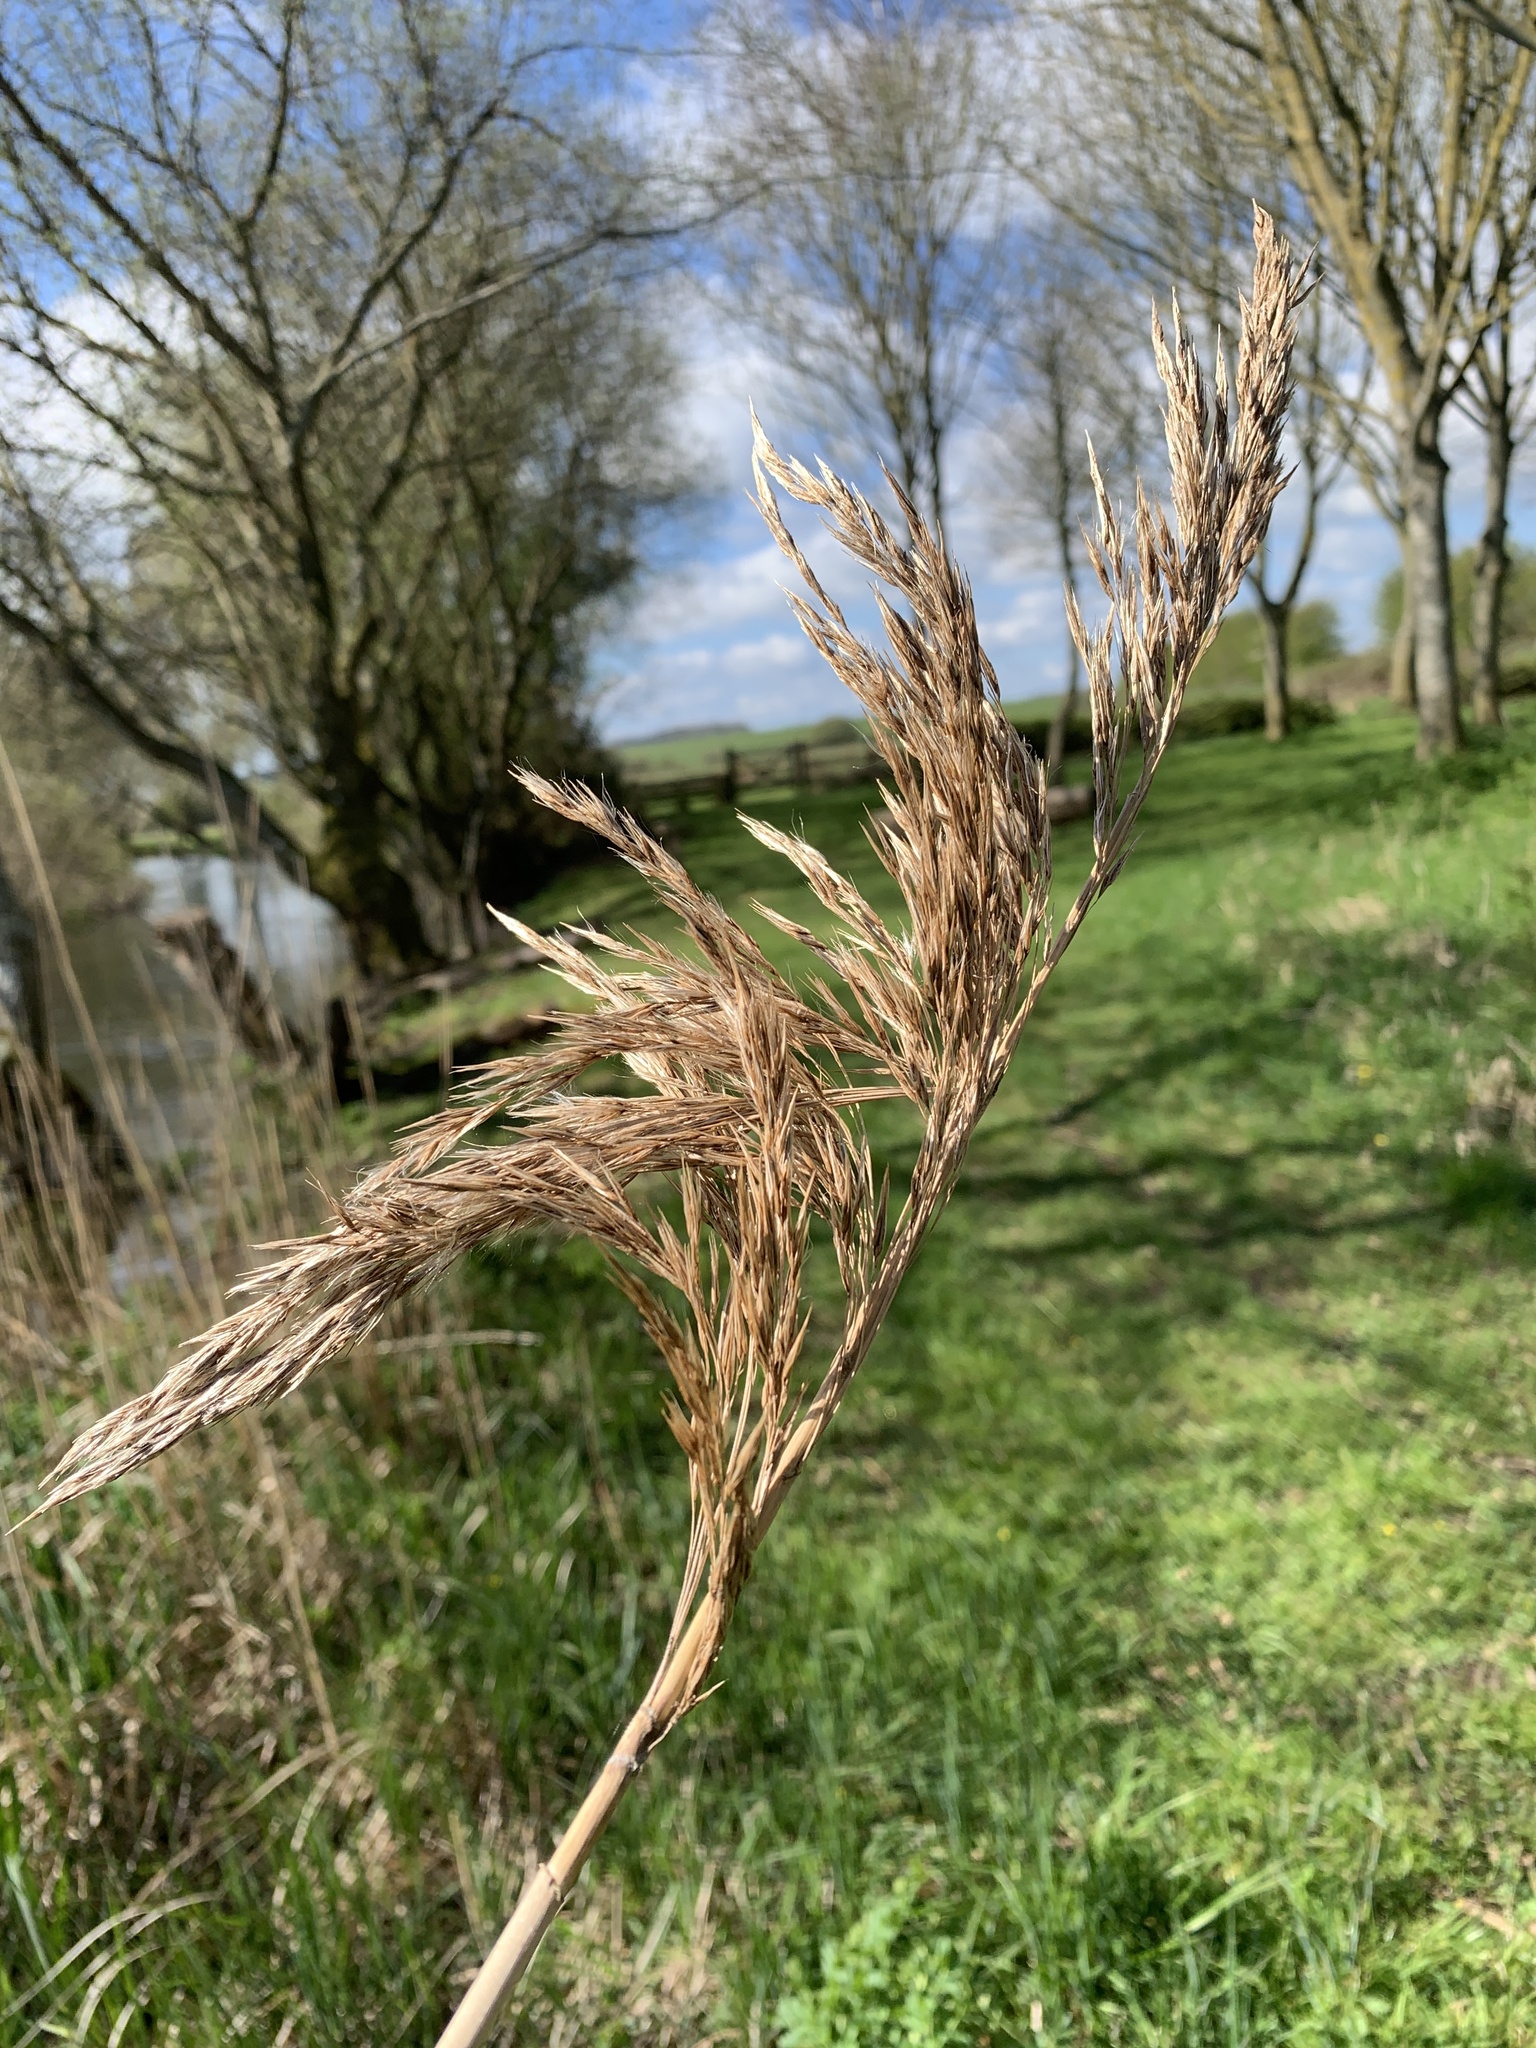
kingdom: Plantae
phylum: Tracheophyta
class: Liliopsida
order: Poales
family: Poaceae
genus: Phragmites
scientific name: Phragmites australis
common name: Common reed
